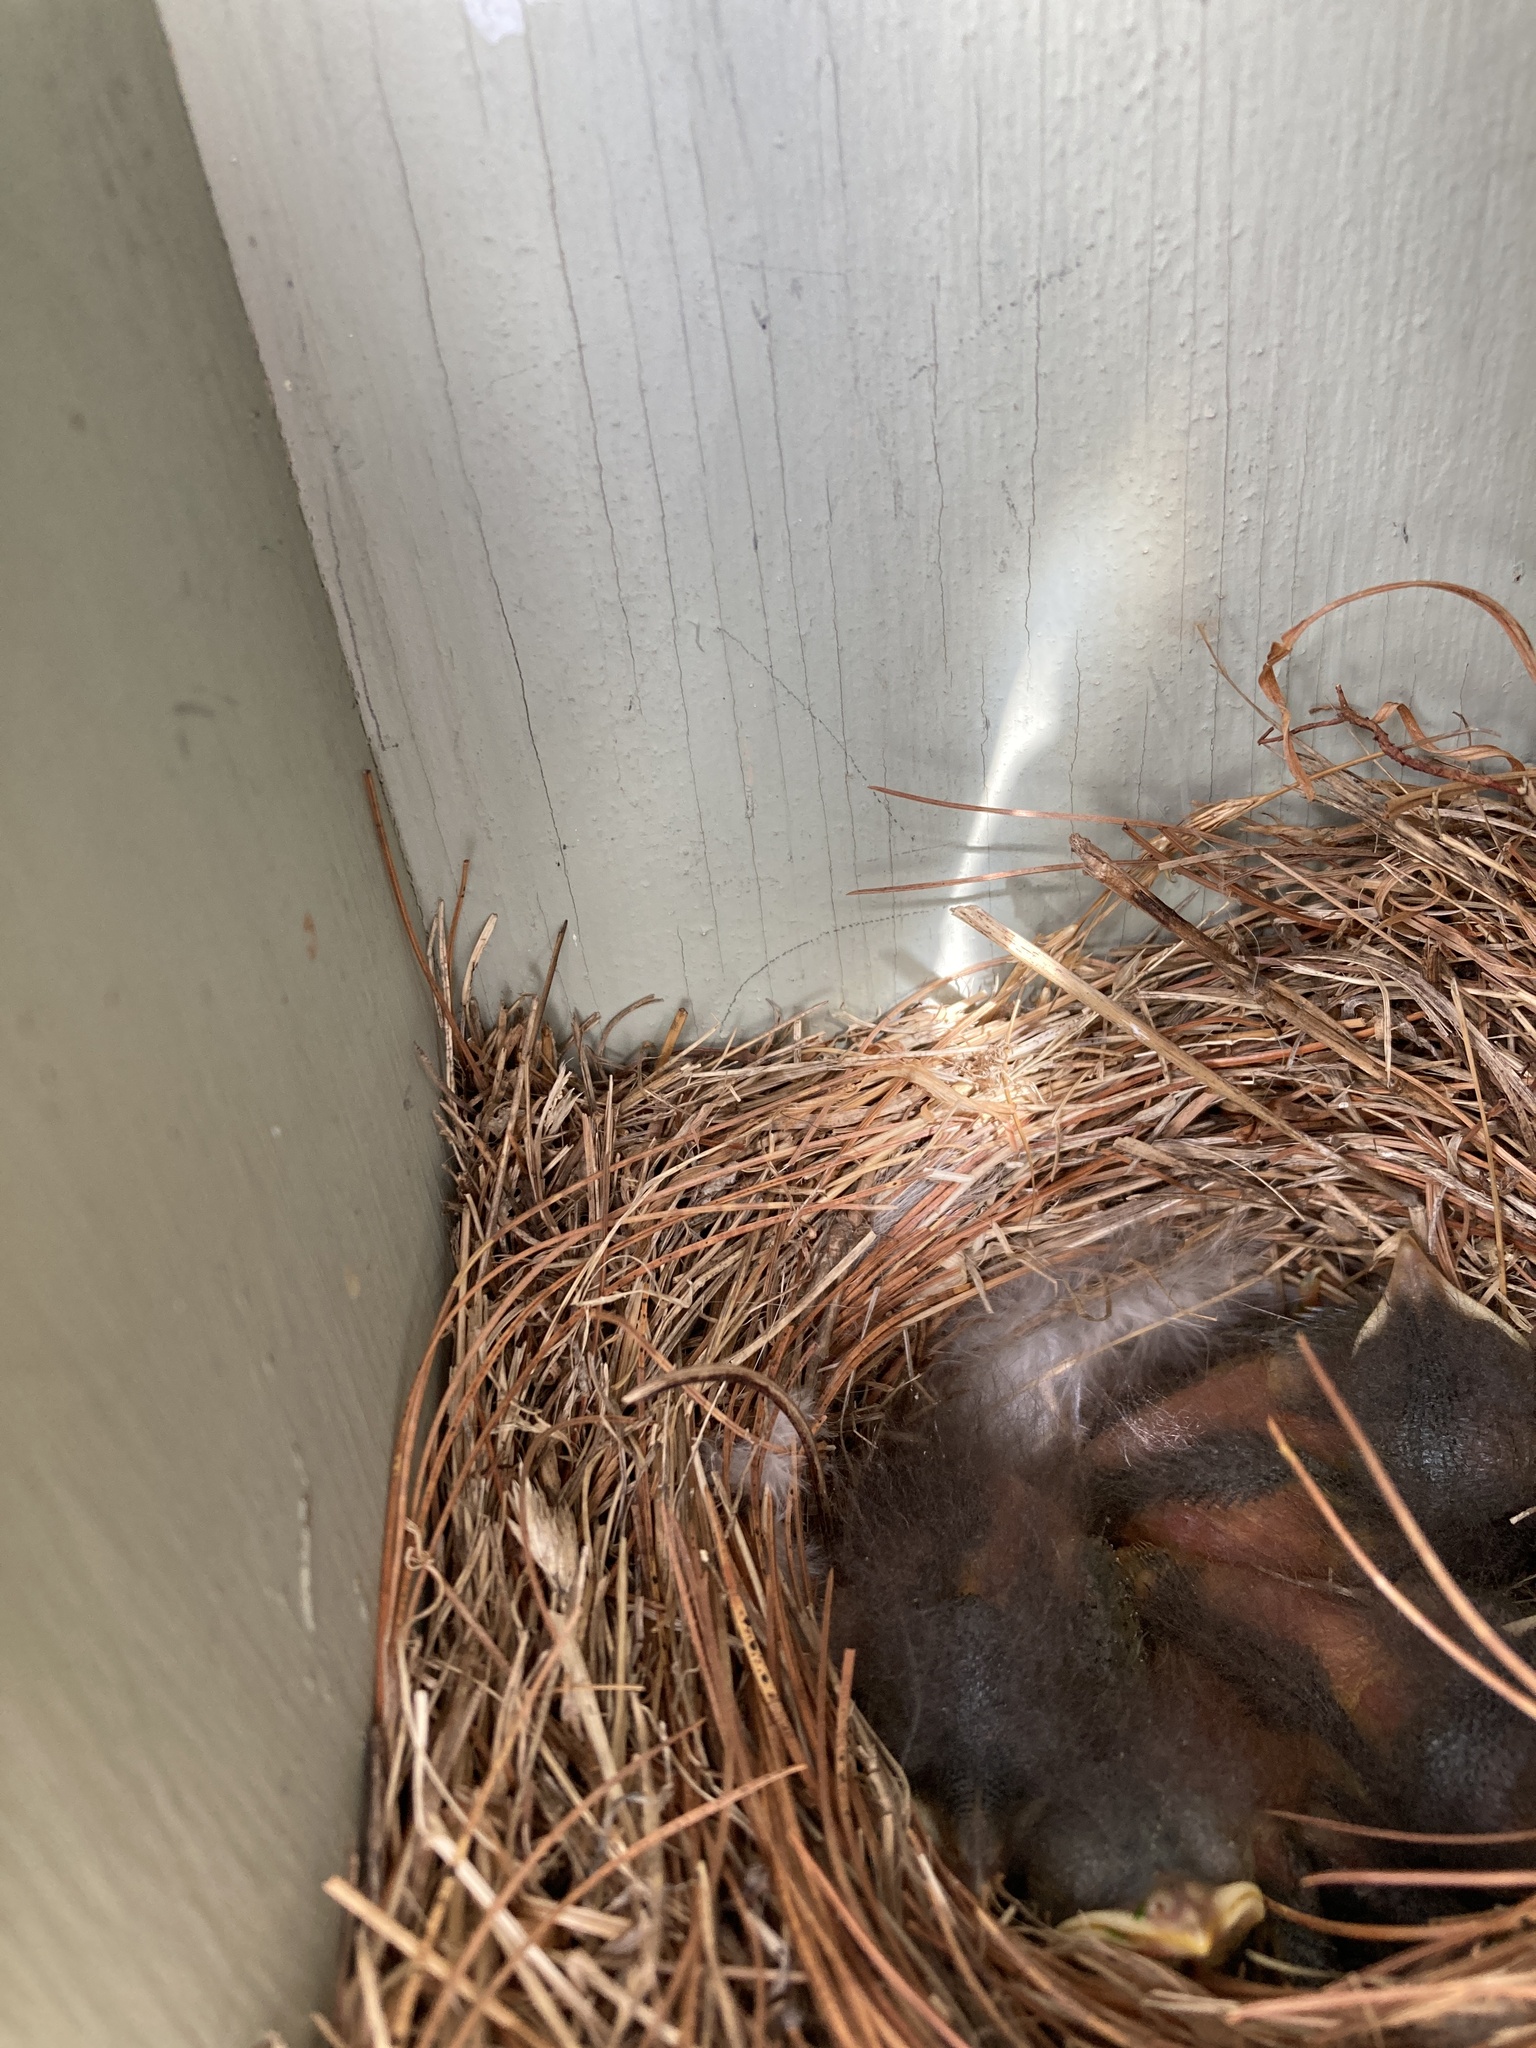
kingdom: Animalia
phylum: Chordata
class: Aves
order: Passeriformes
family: Turdidae
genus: Sialia
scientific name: Sialia sialis
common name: Eastern bluebird
